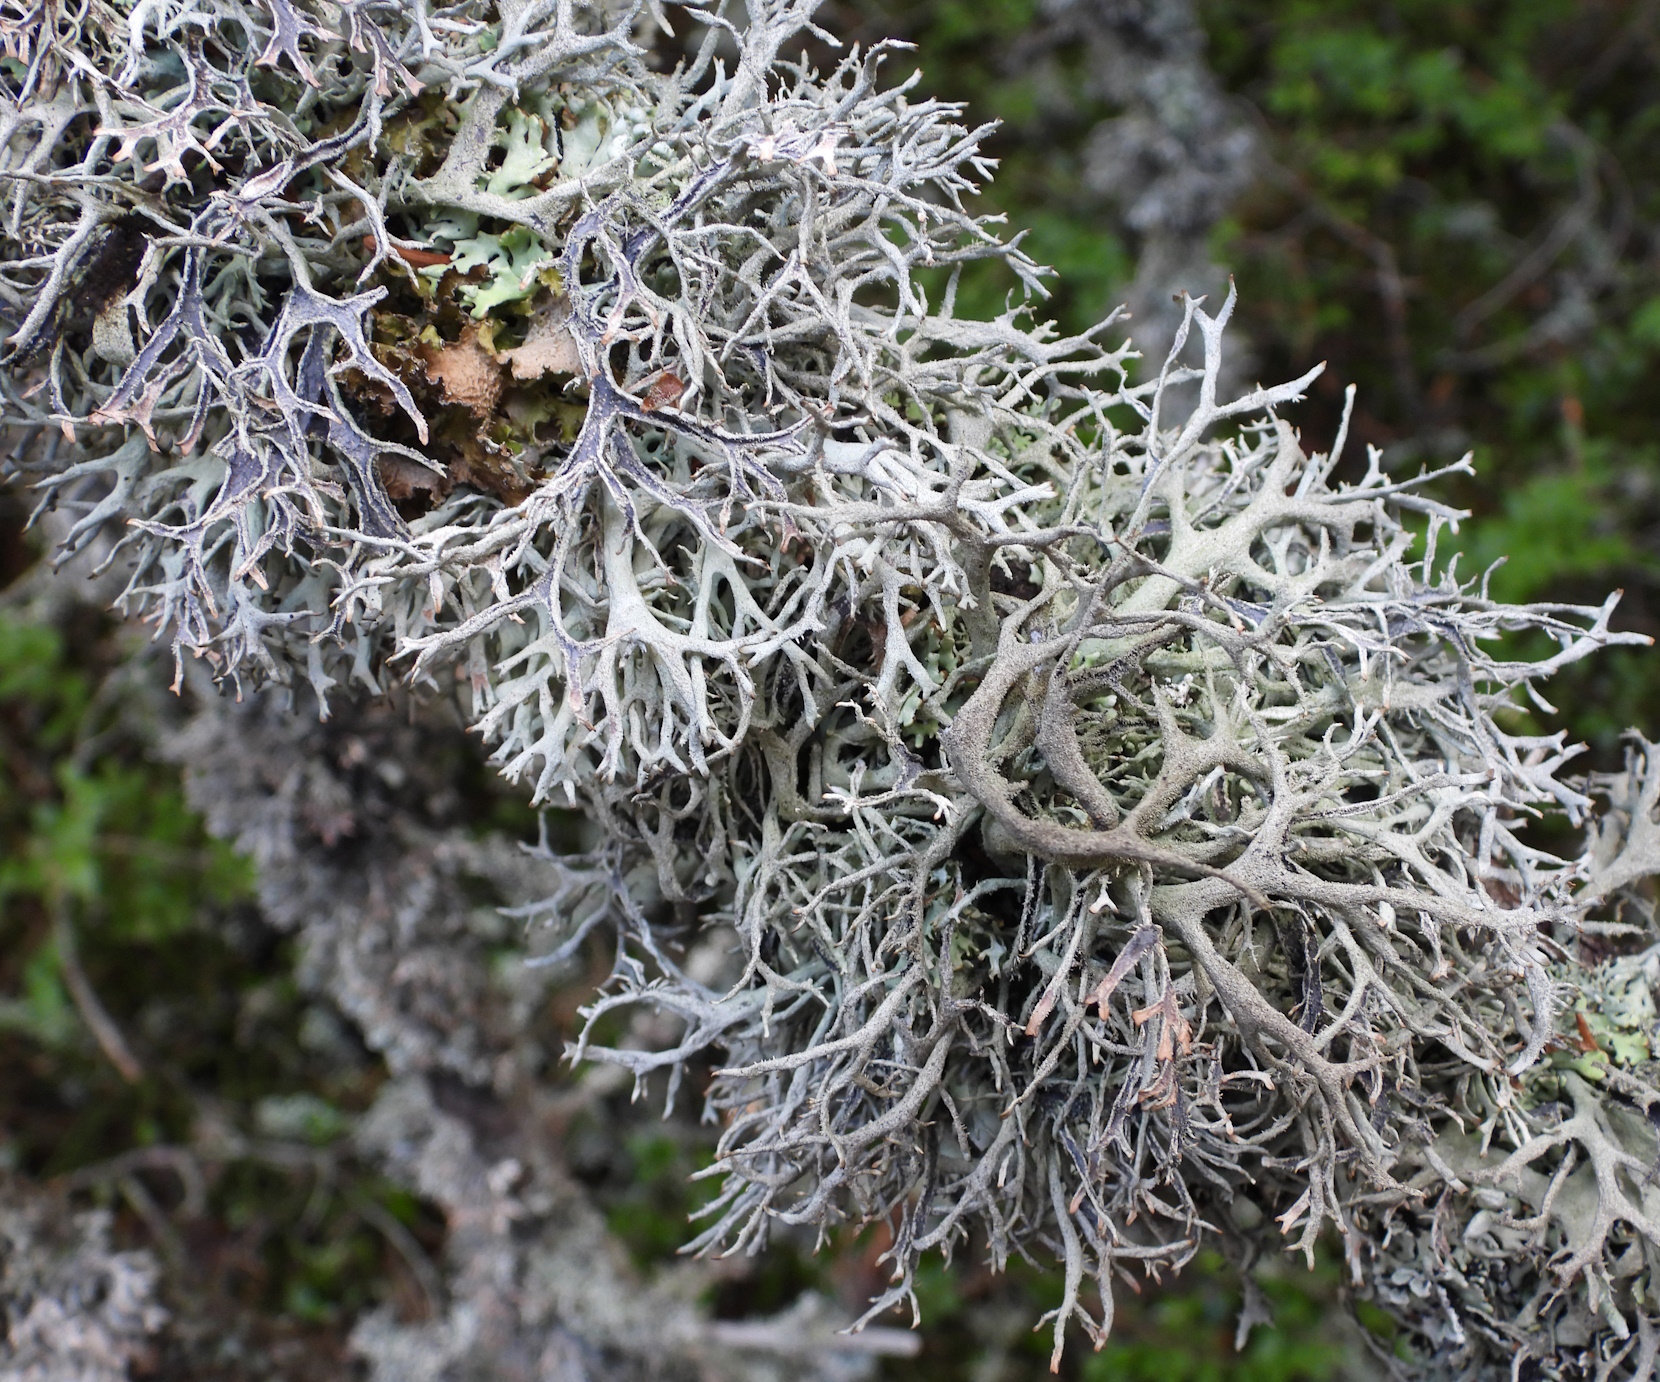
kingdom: Fungi
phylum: Ascomycota
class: Lecanoromycetes
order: Lecanorales
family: Parmeliaceae
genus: Pseudevernia
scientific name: Pseudevernia furfuracea
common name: Tree moss
